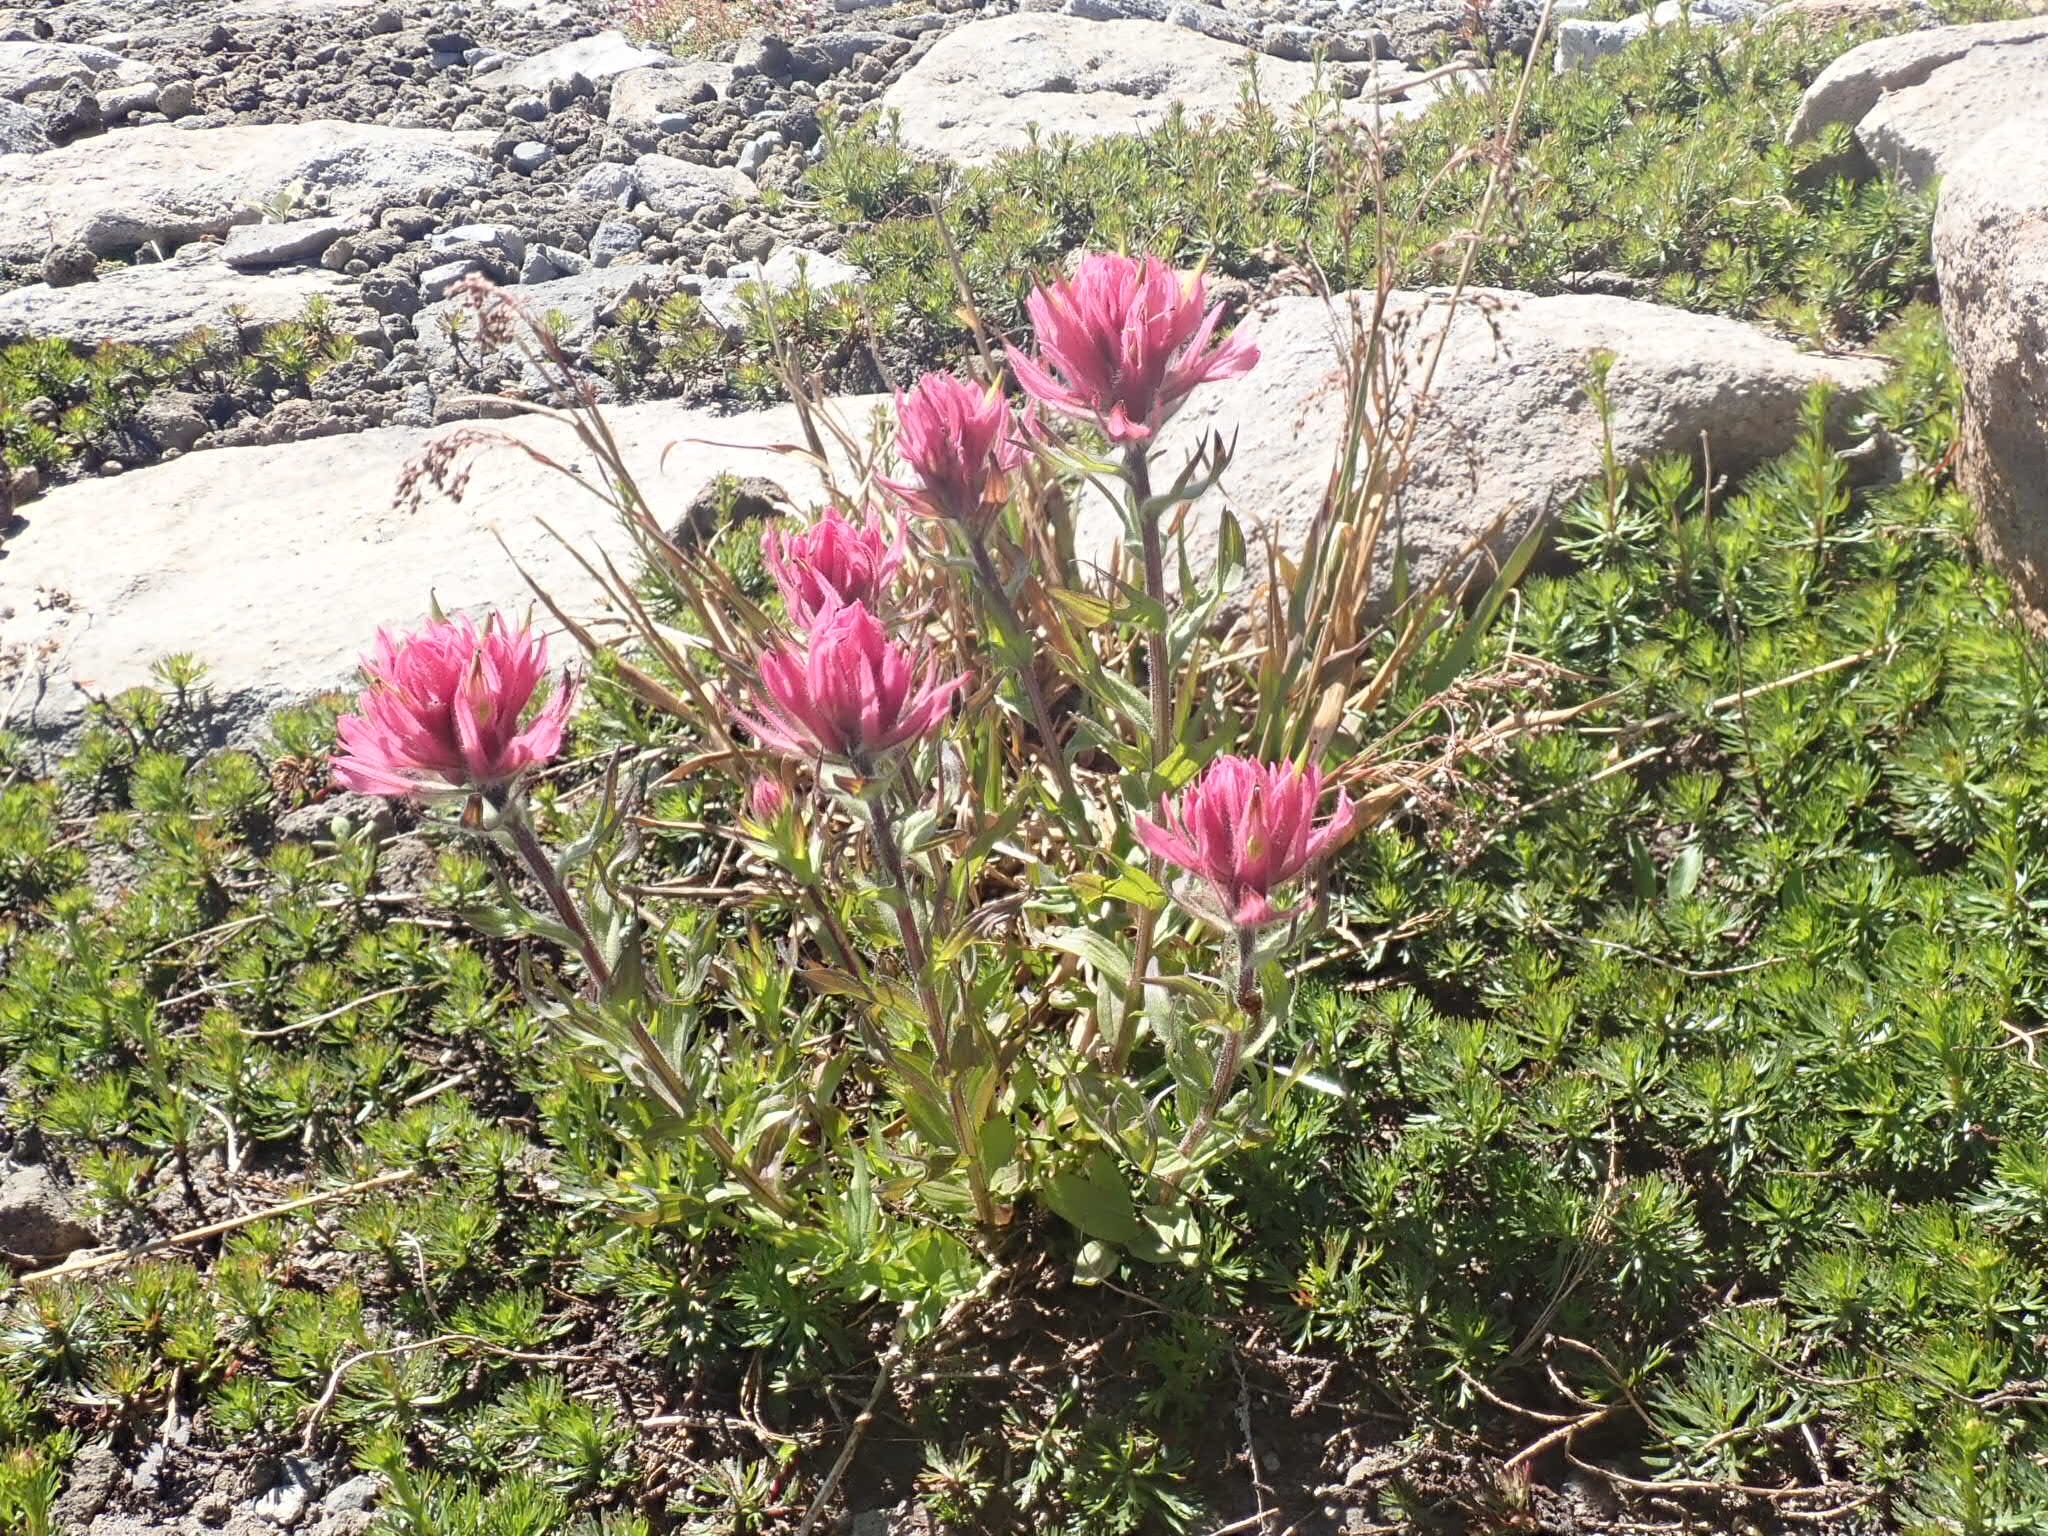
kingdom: Plantae
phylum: Tracheophyta
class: Magnoliopsida
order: Lamiales
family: Orobanchaceae
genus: Castilleja
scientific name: Castilleja parviflora
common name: Mountain paintbrush
